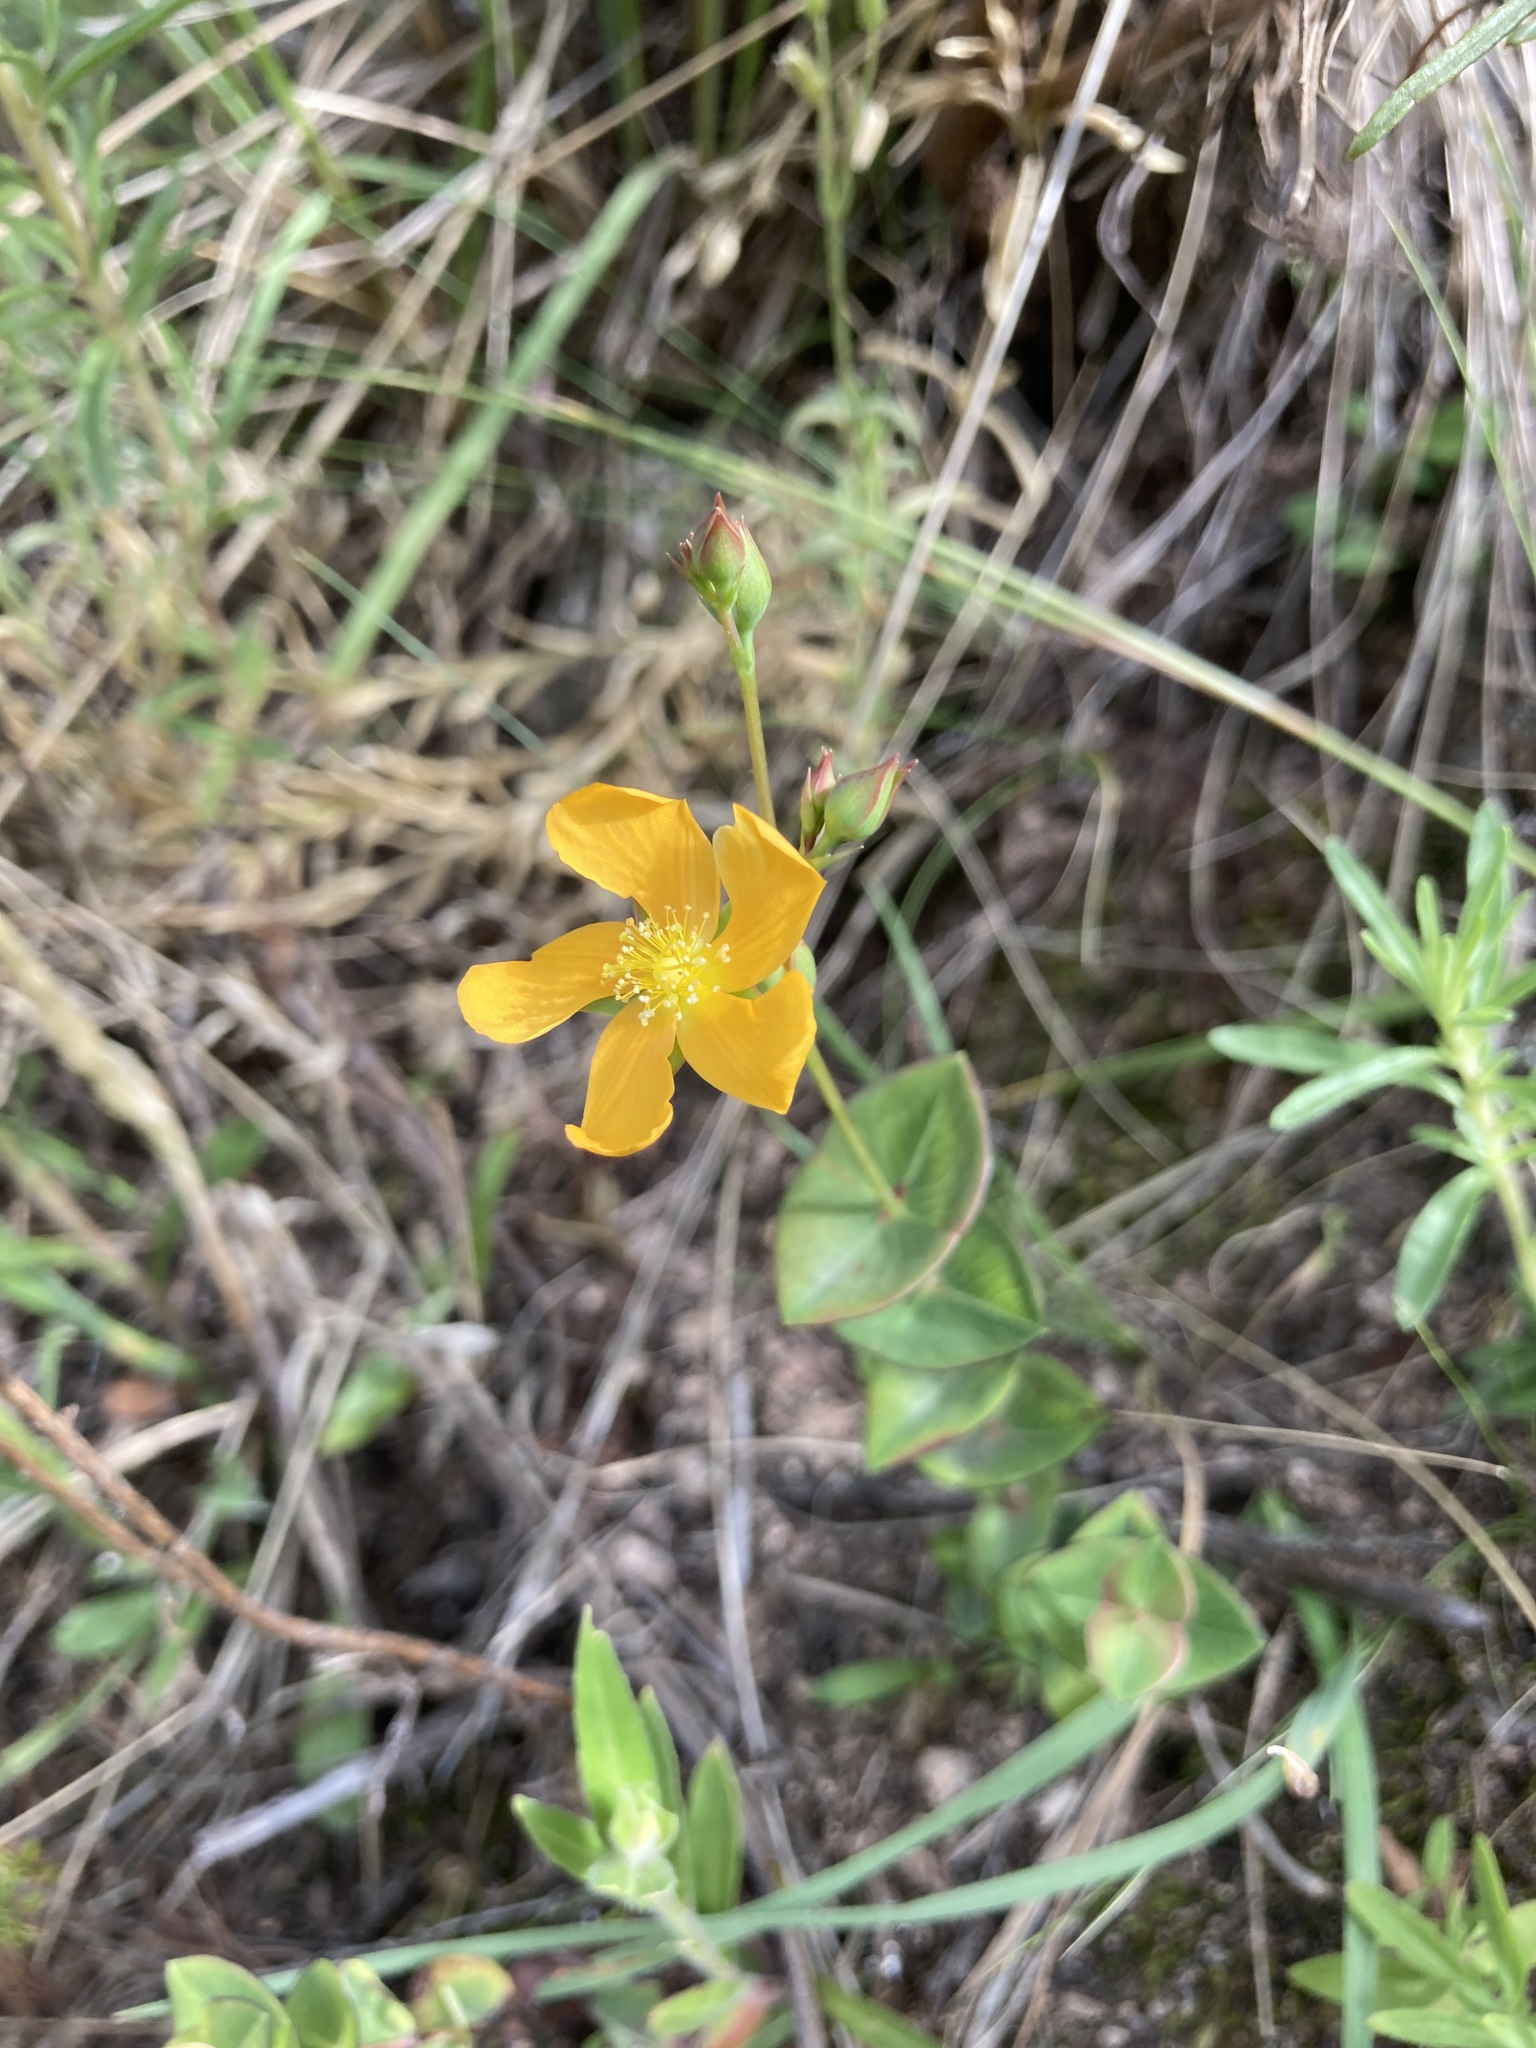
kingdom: Plantae
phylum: Tracheophyta
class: Magnoliopsida
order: Malpighiales
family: Hypericaceae
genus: Hypericum
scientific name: Hypericum connatum
